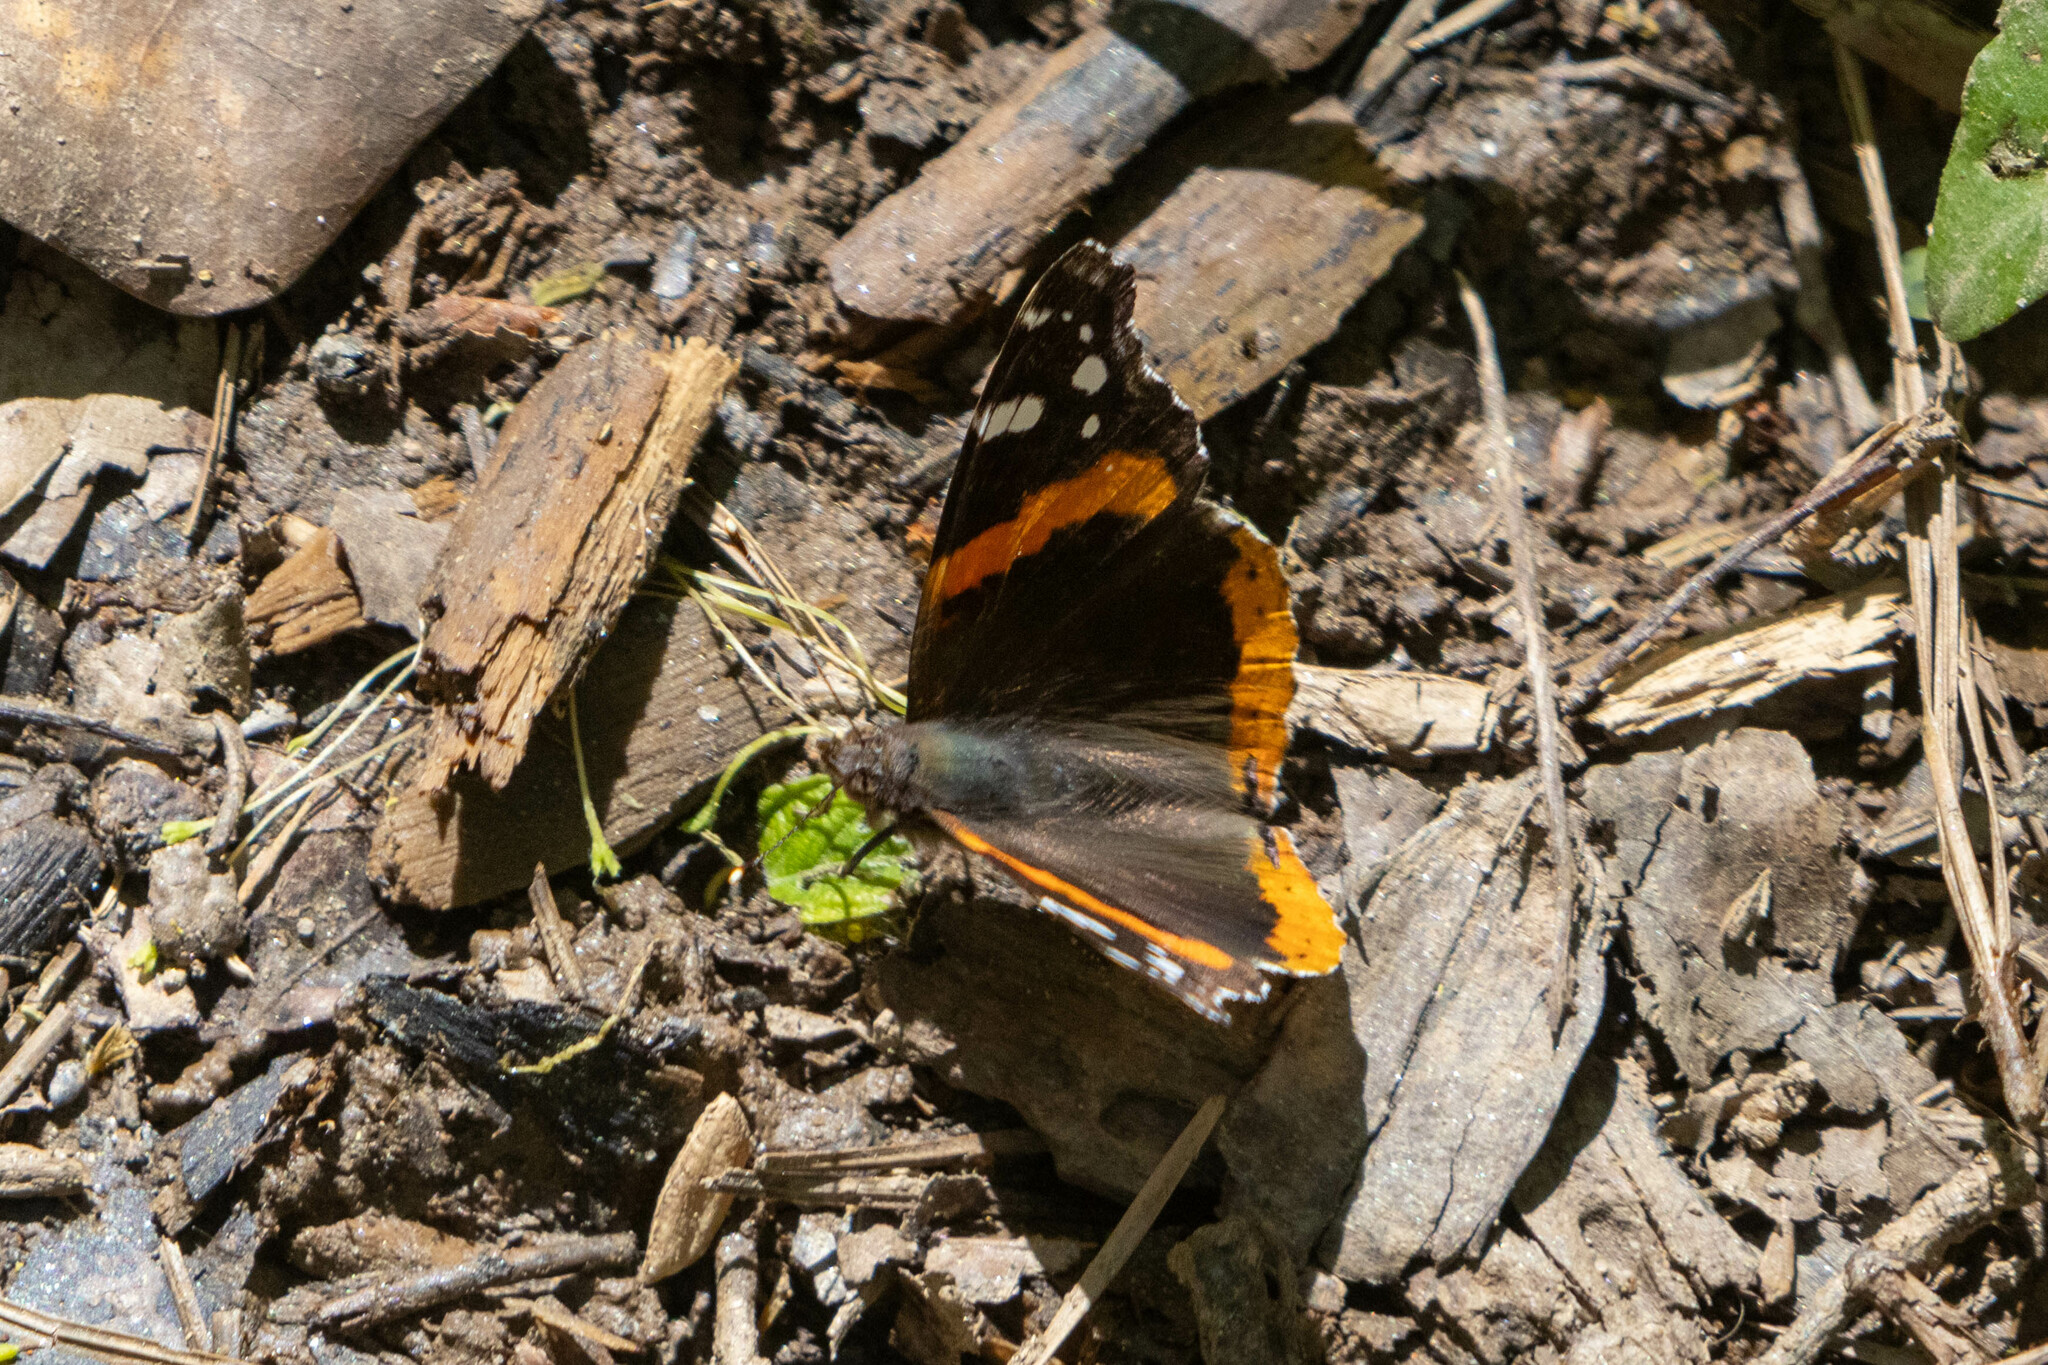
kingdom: Animalia
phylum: Arthropoda
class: Insecta
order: Lepidoptera
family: Nymphalidae
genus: Vanessa
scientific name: Vanessa atalanta
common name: Red admiral
